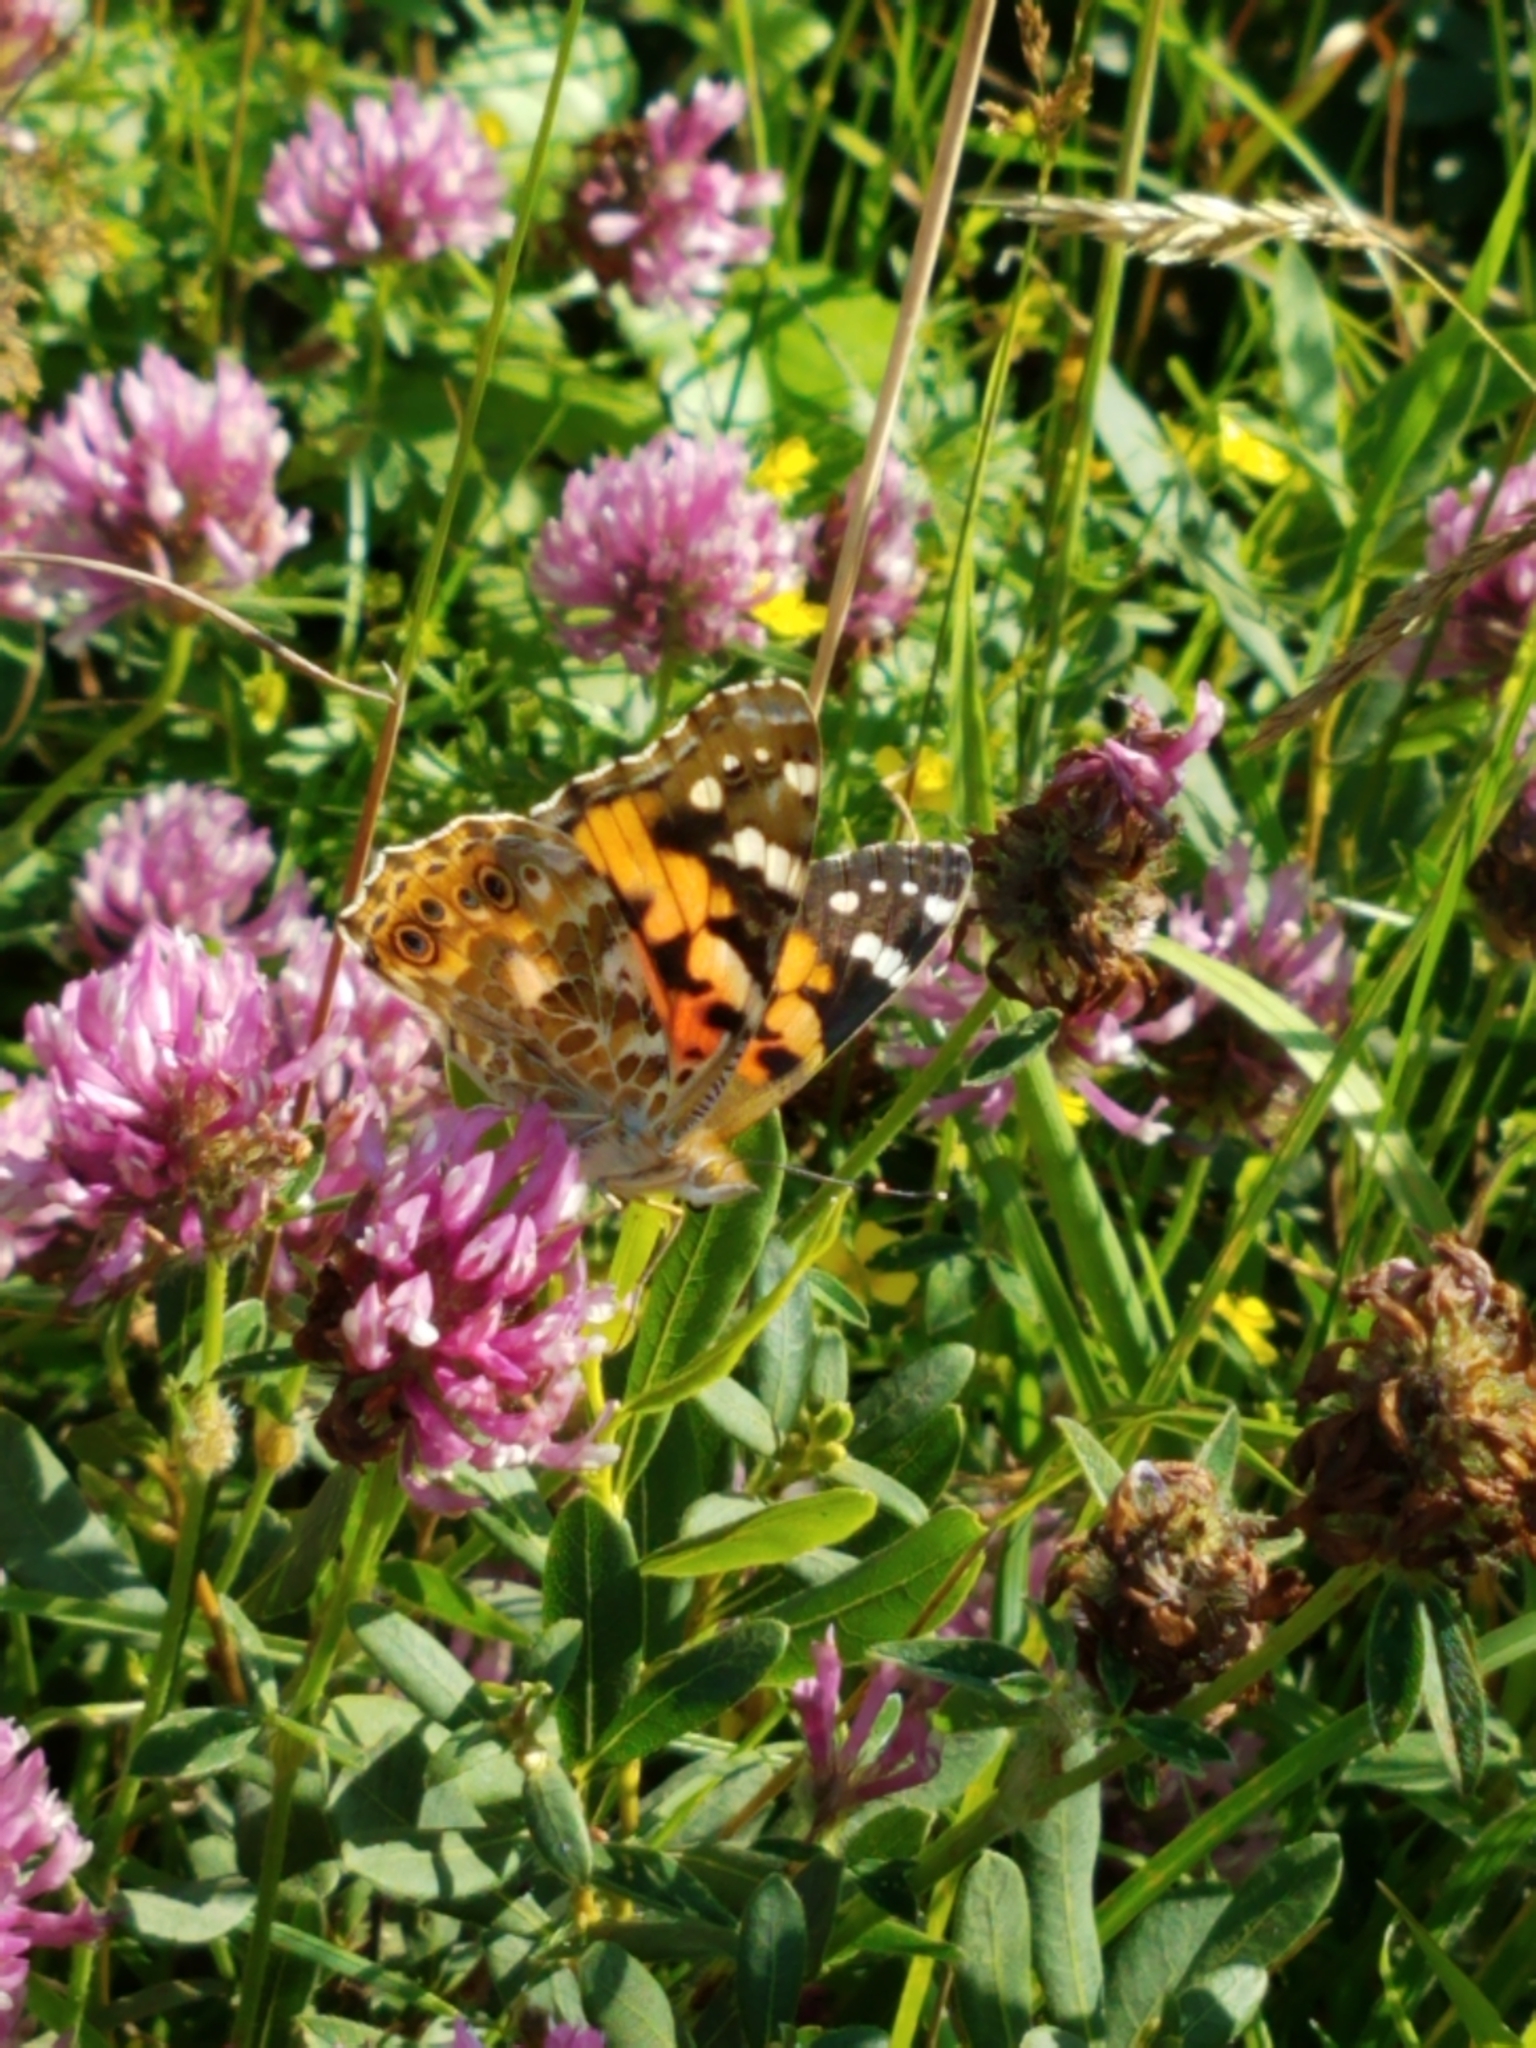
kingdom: Animalia
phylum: Arthropoda
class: Insecta
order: Lepidoptera
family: Nymphalidae
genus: Vanessa
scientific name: Vanessa cardui
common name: Painted lady
